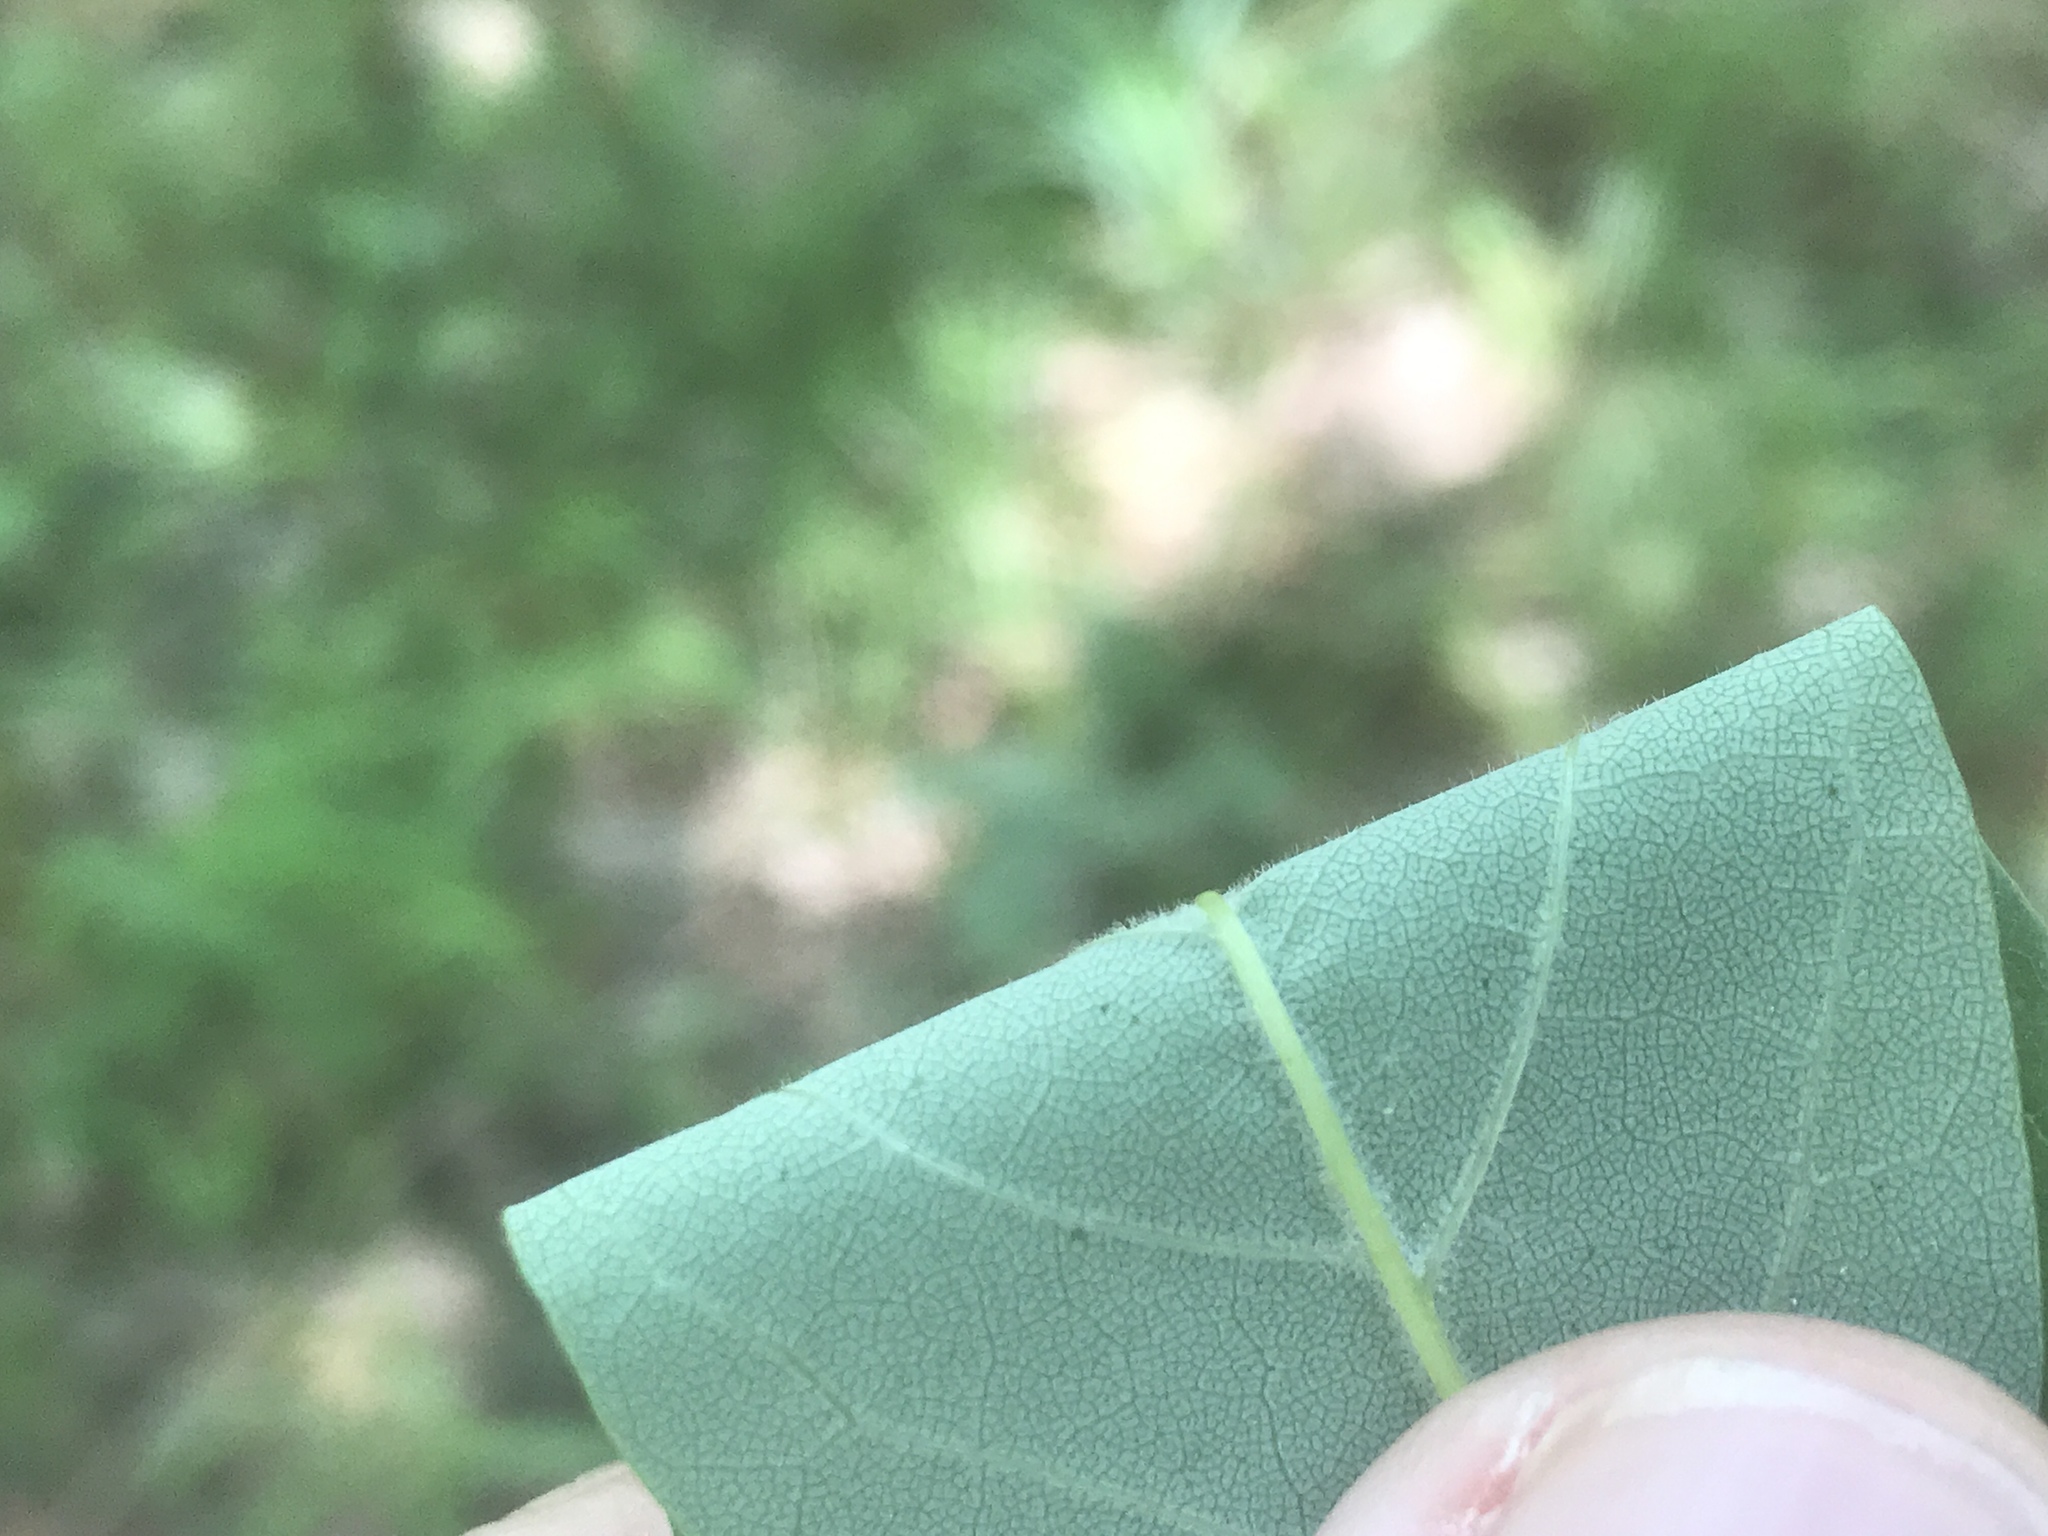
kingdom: Plantae
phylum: Tracheophyta
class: Magnoliopsida
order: Lamiales
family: Oleaceae
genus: Fraxinus
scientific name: Fraxinus americana
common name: White ash
